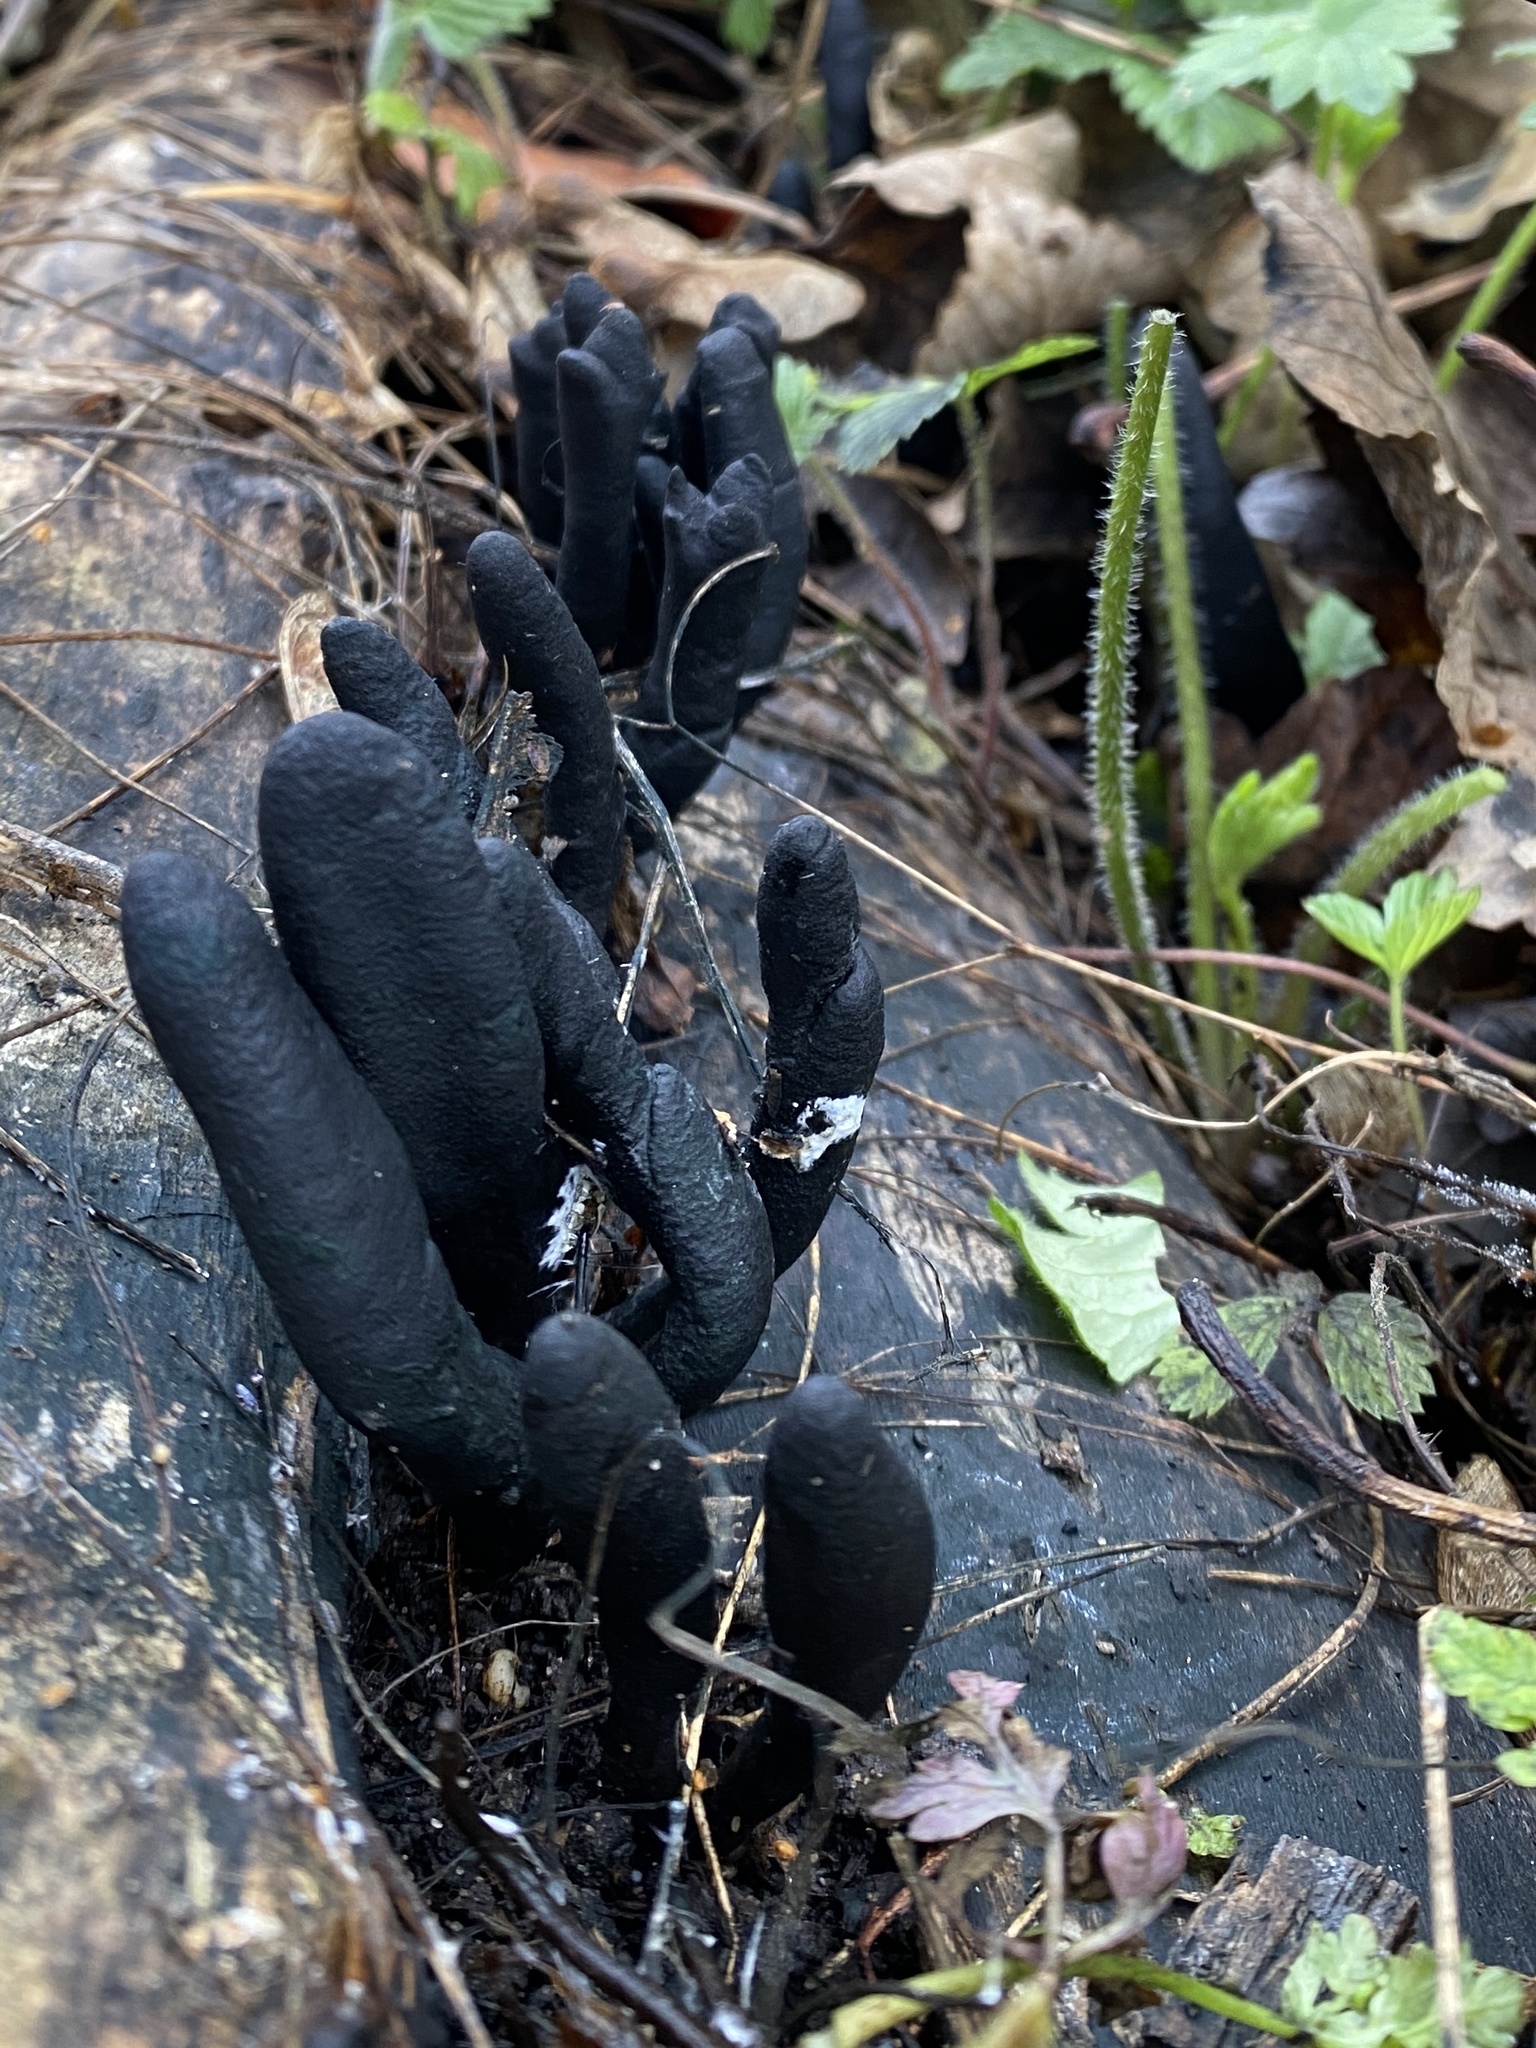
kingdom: Fungi
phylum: Ascomycota
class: Sordariomycetes
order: Xylariales
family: Xylariaceae
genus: Xylaria
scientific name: Xylaria polymorpha
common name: Dead man's fingers
